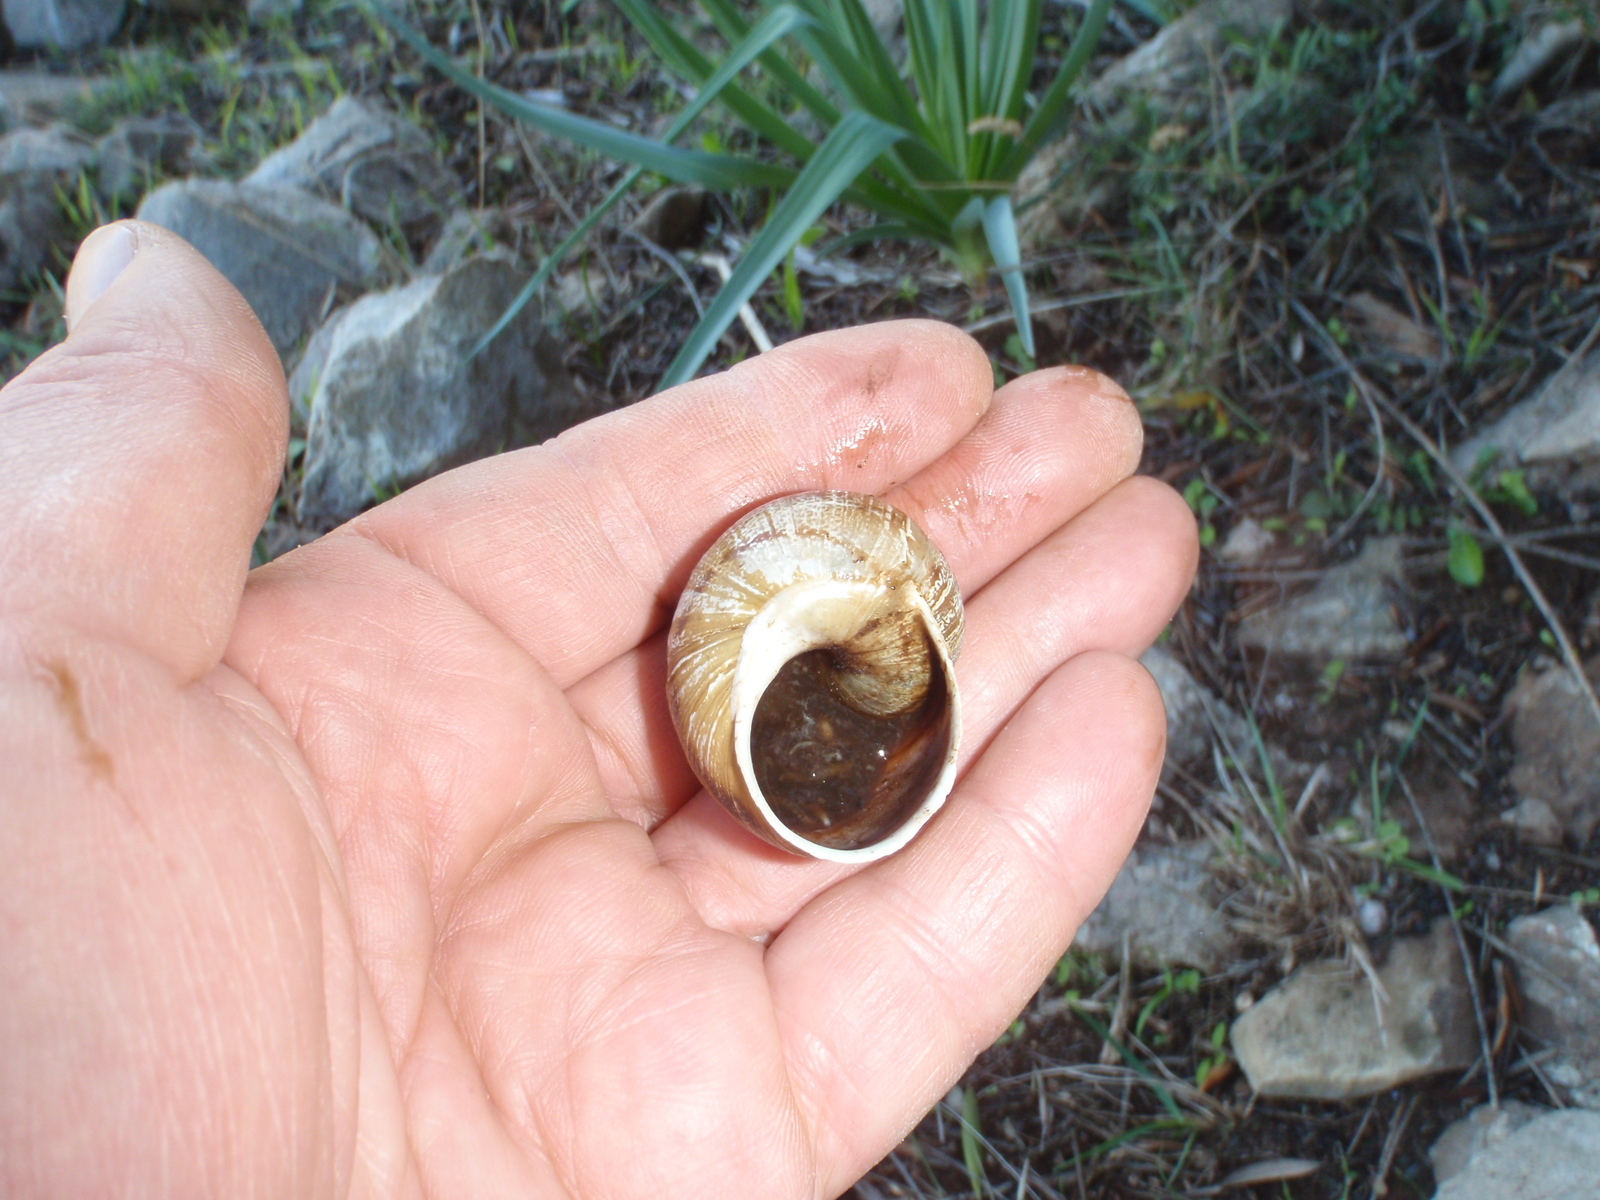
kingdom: Animalia
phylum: Mollusca
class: Gastropoda
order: Stylommatophora
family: Helicidae
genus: Cornu
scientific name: Cornu aspersum
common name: Brown garden snail
